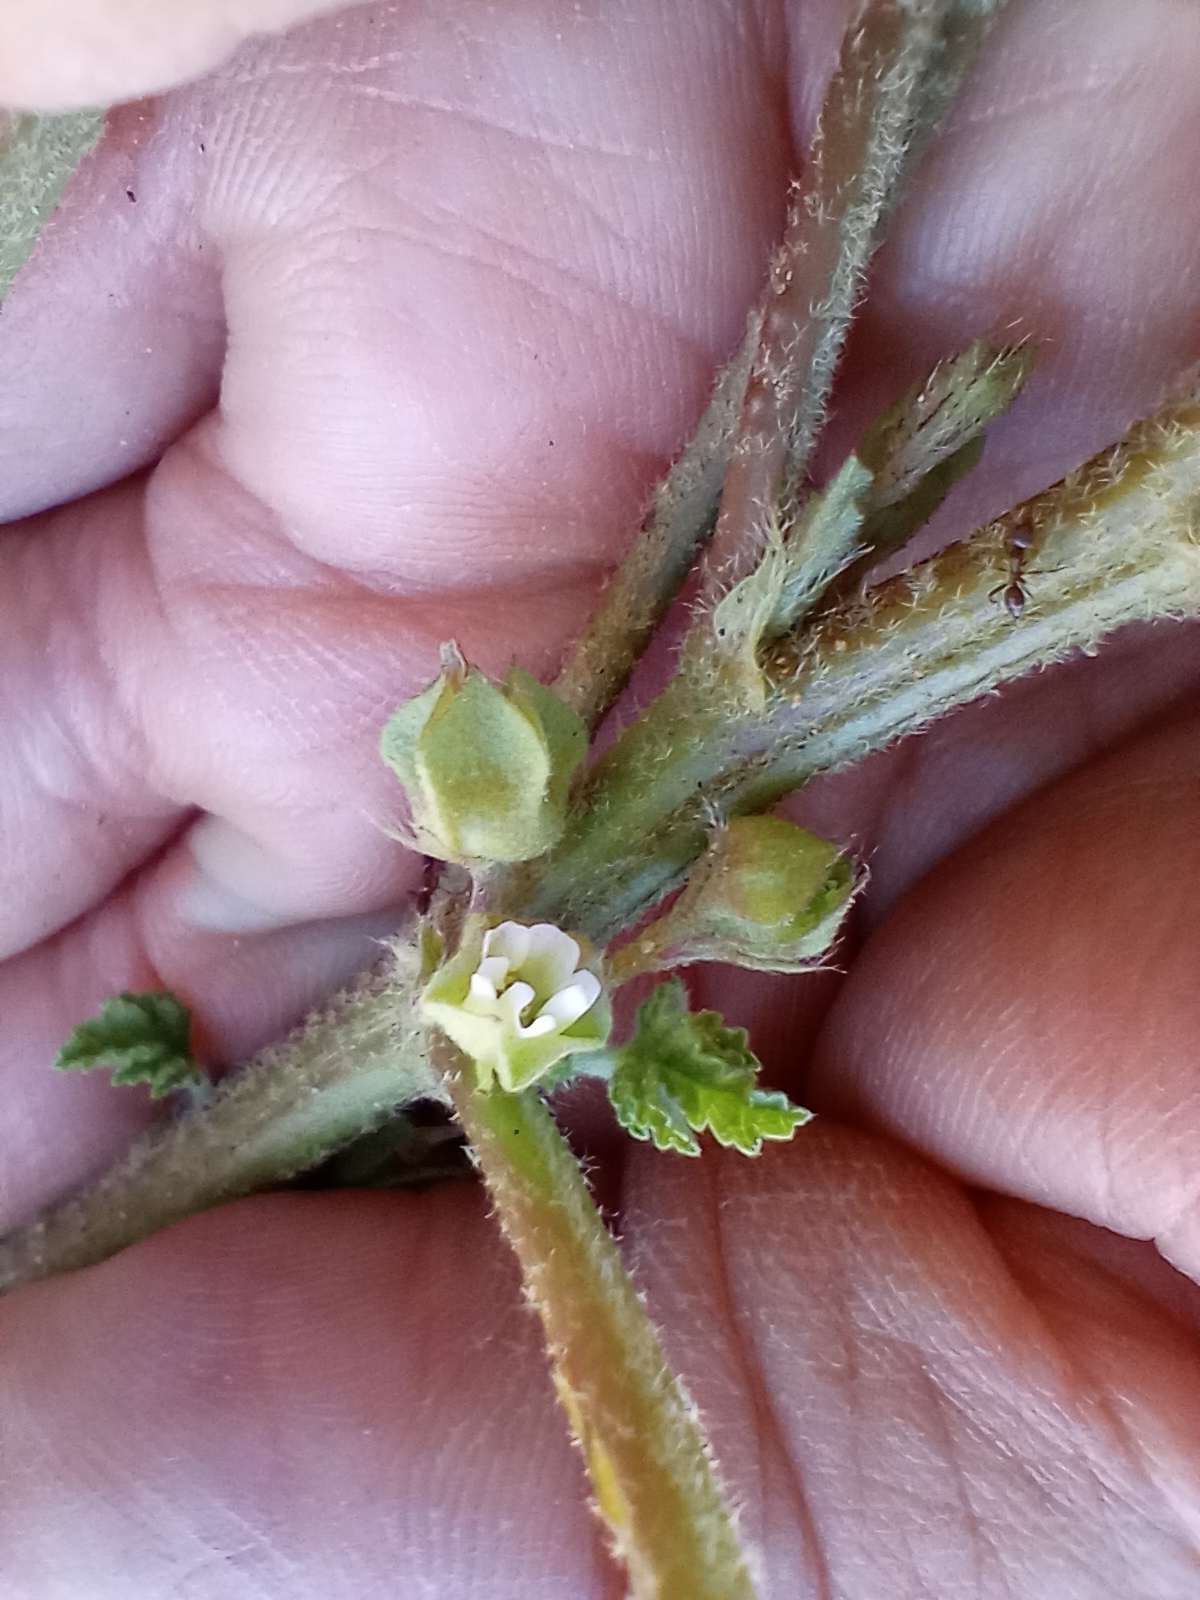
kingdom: Animalia
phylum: Arthropoda
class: Insecta
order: Hymenoptera
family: Formicidae
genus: Linepithema
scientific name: Linepithema humile
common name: Argentine ant
